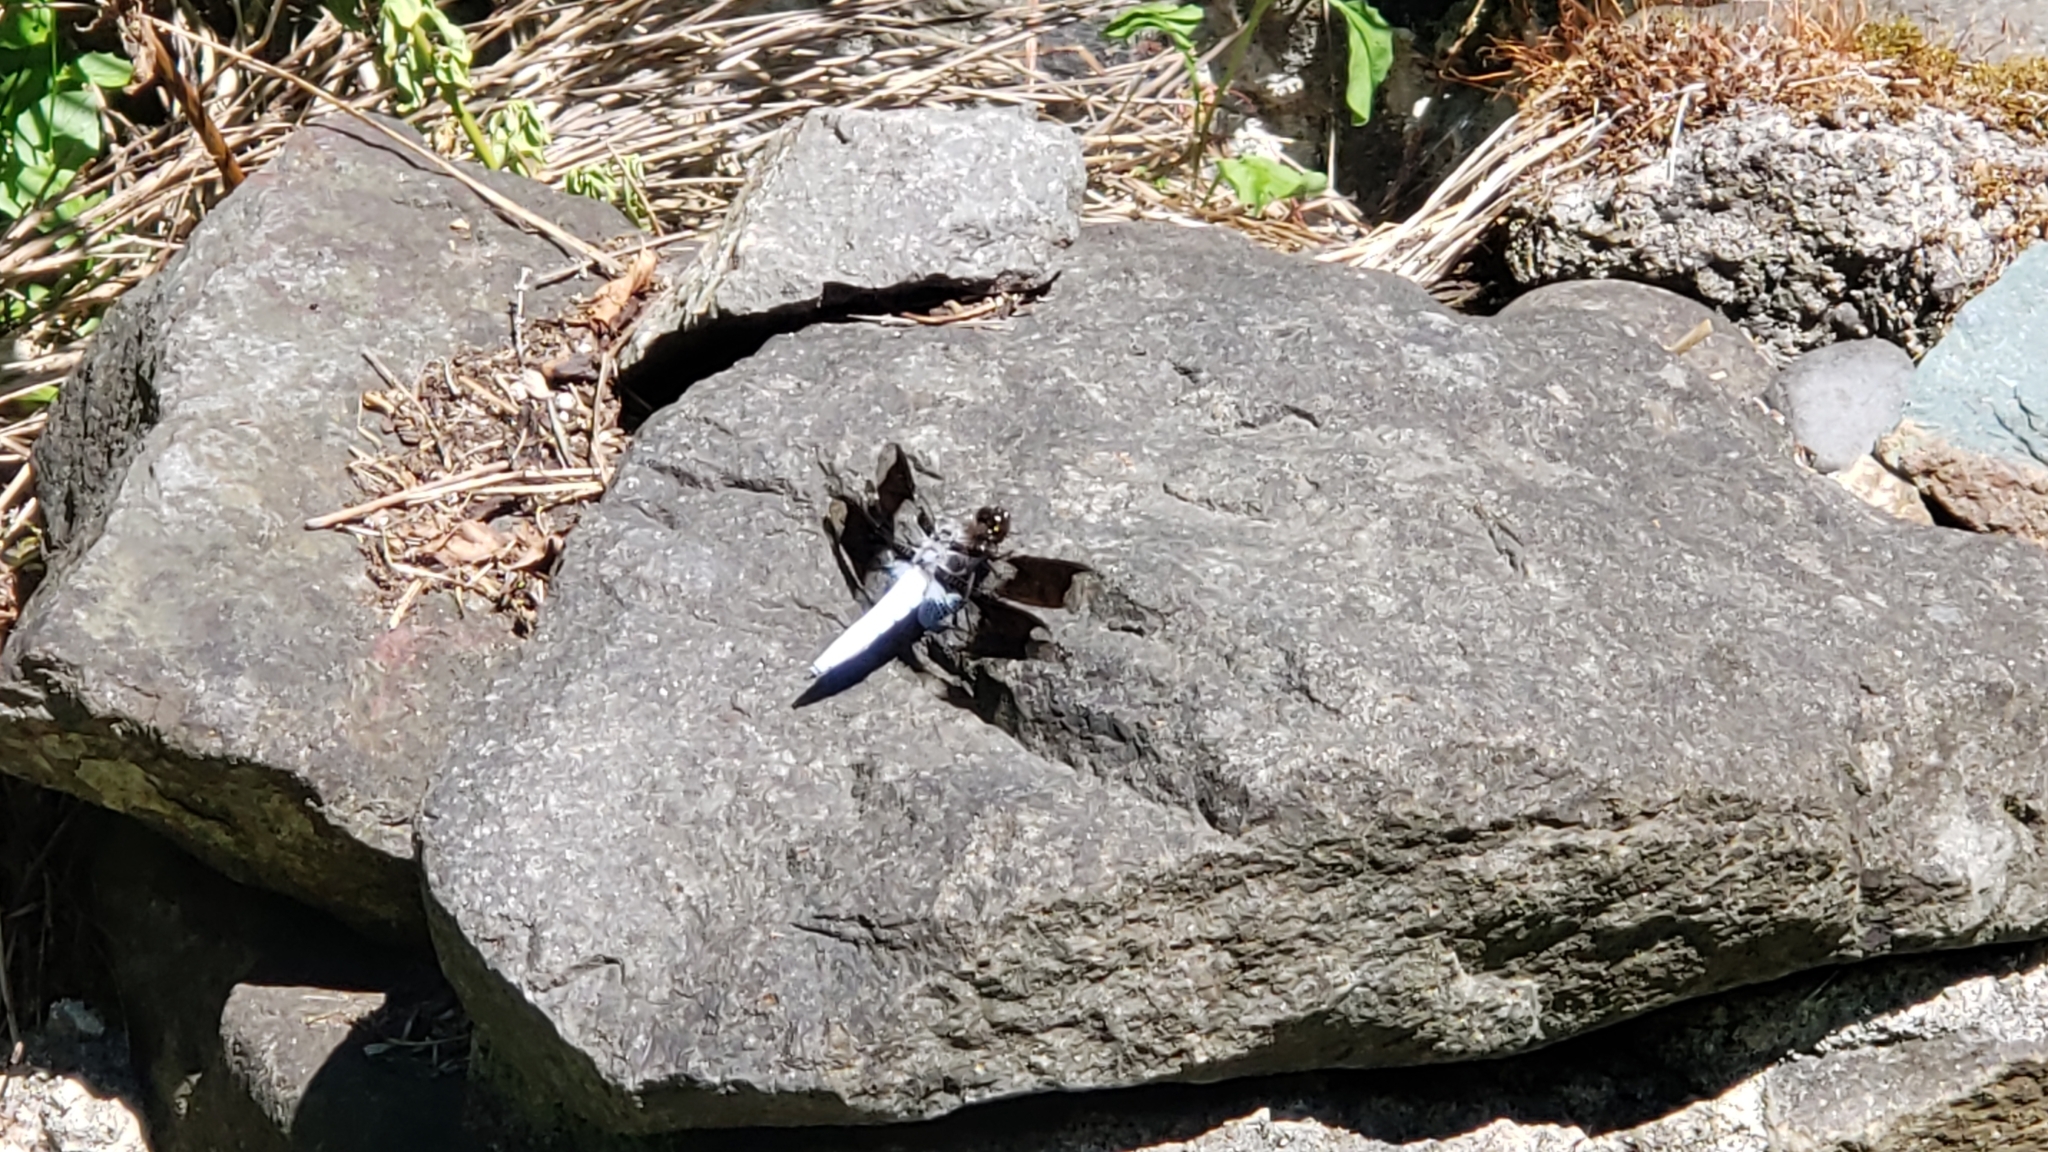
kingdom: Animalia
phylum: Arthropoda
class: Insecta
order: Odonata
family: Libellulidae
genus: Plathemis
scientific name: Plathemis lydia
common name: Common whitetail
